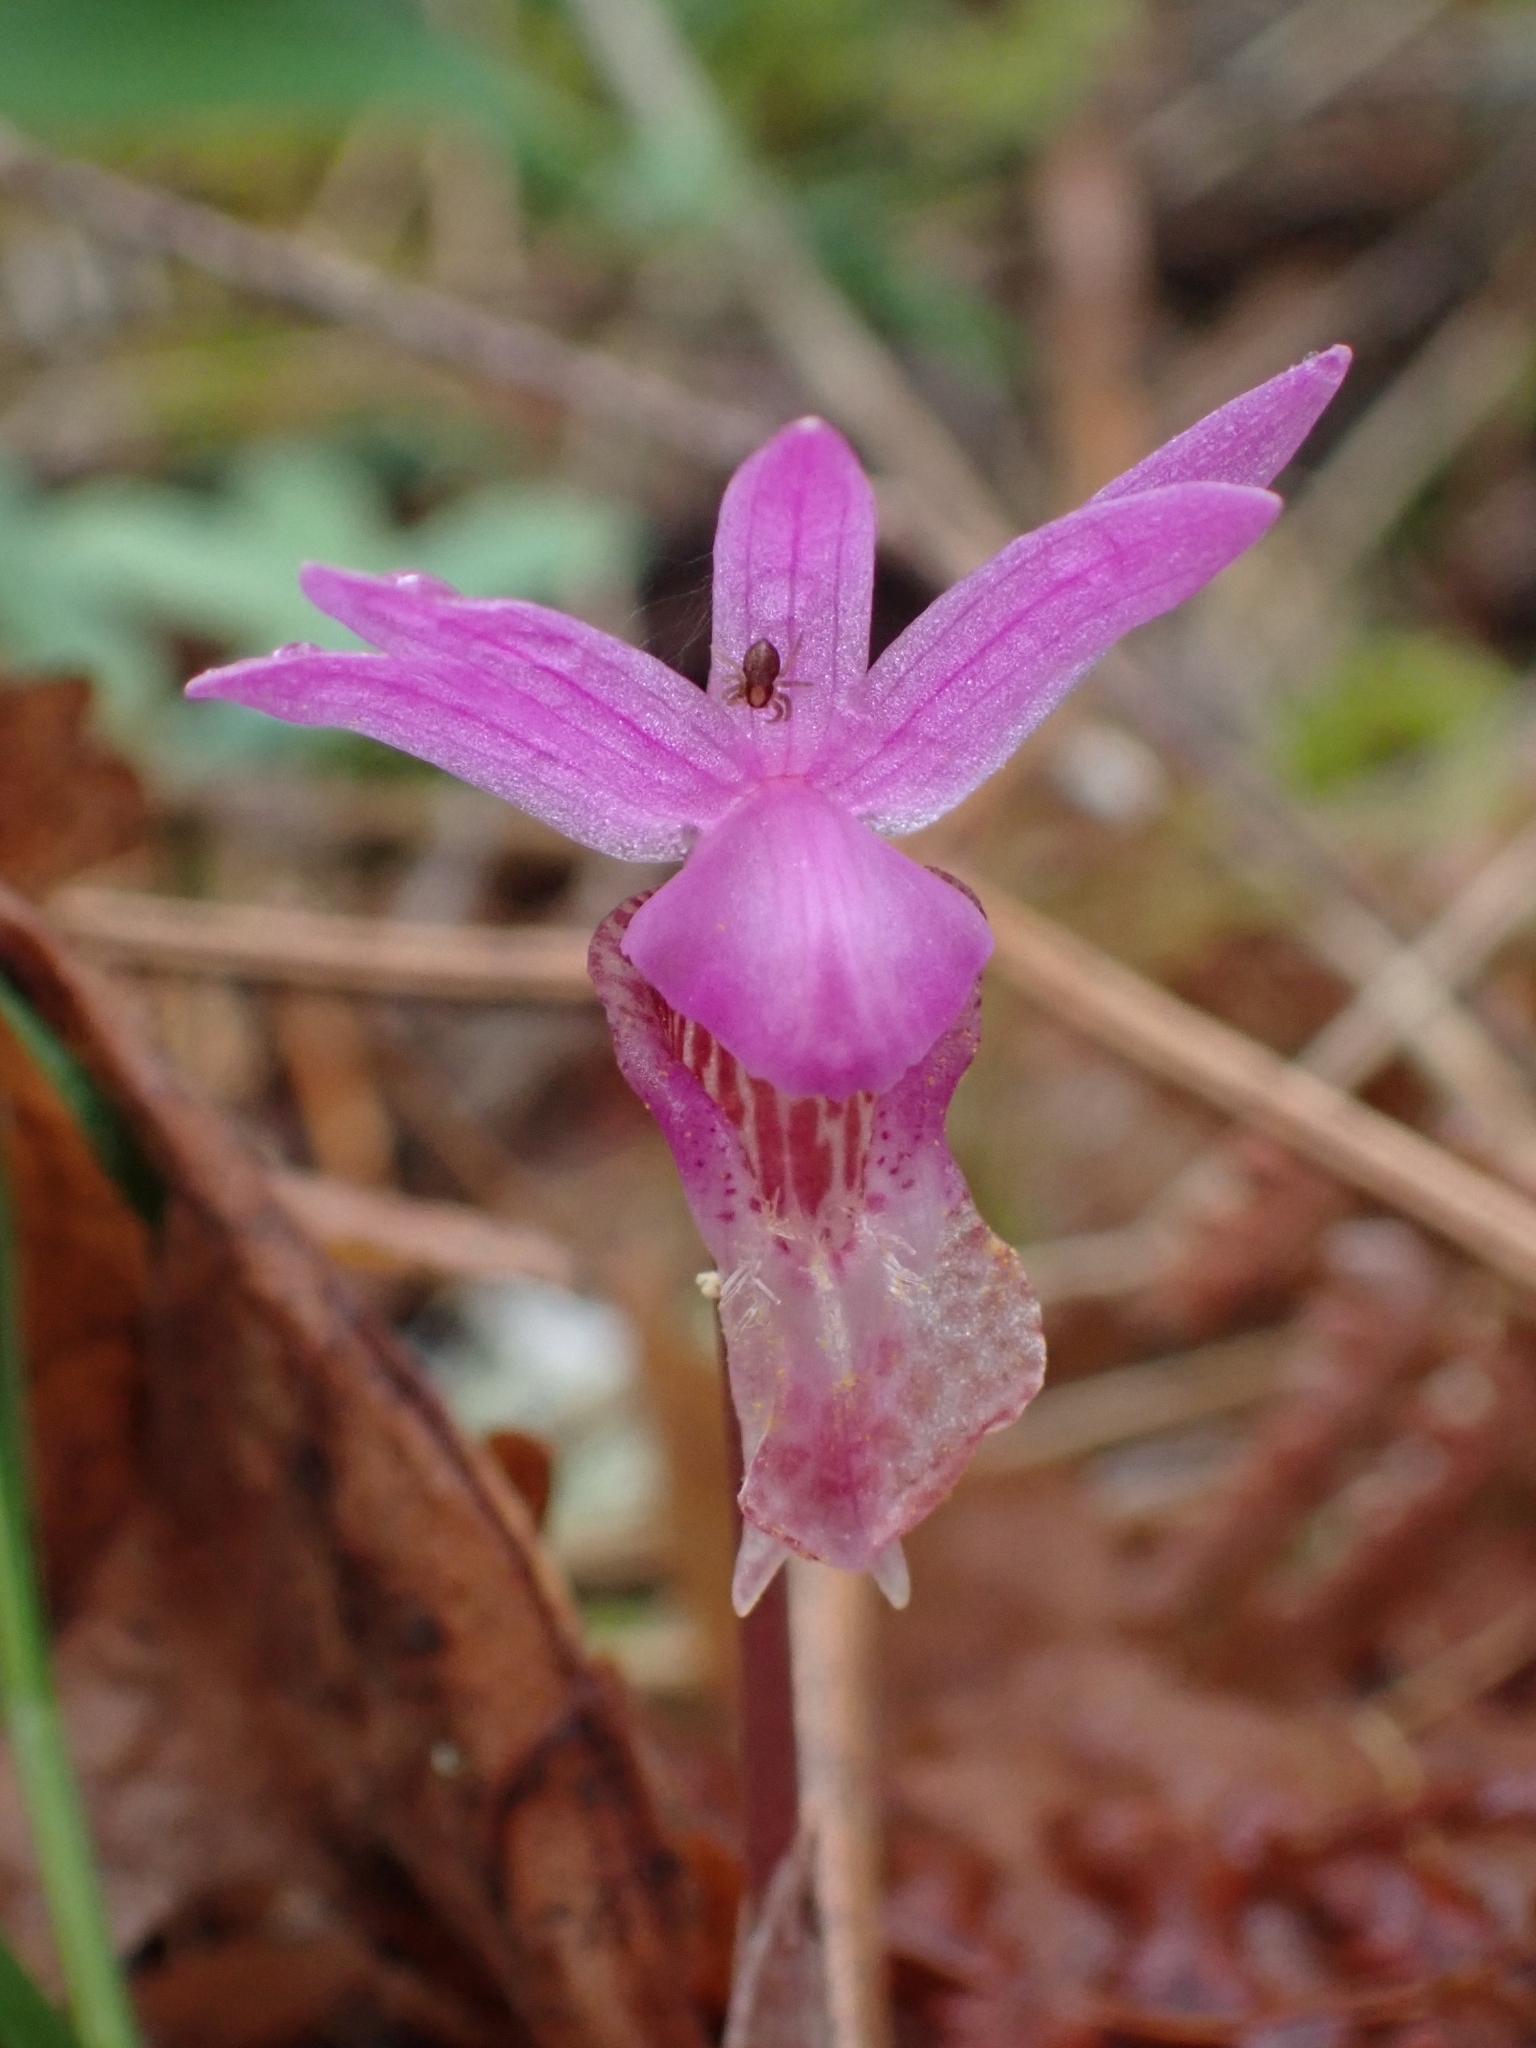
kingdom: Plantae
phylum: Tracheophyta
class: Liliopsida
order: Asparagales
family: Orchidaceae
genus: Calypso
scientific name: Calypso bulbosa
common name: Calypso
